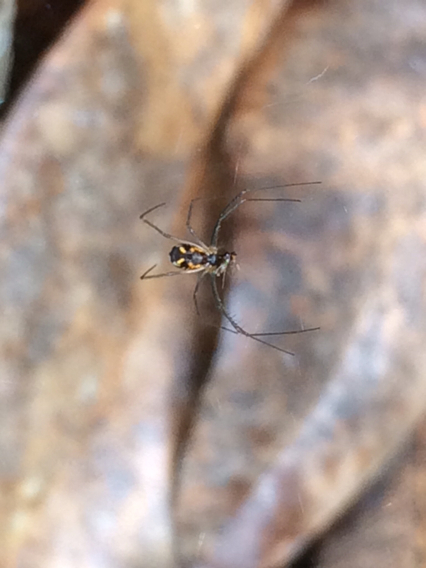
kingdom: Animalia
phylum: Arthropoda
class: Arachnida
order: Araneae
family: Linyphiidae
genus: Neriene
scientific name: Neriene radiata
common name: Filmy dome spider
